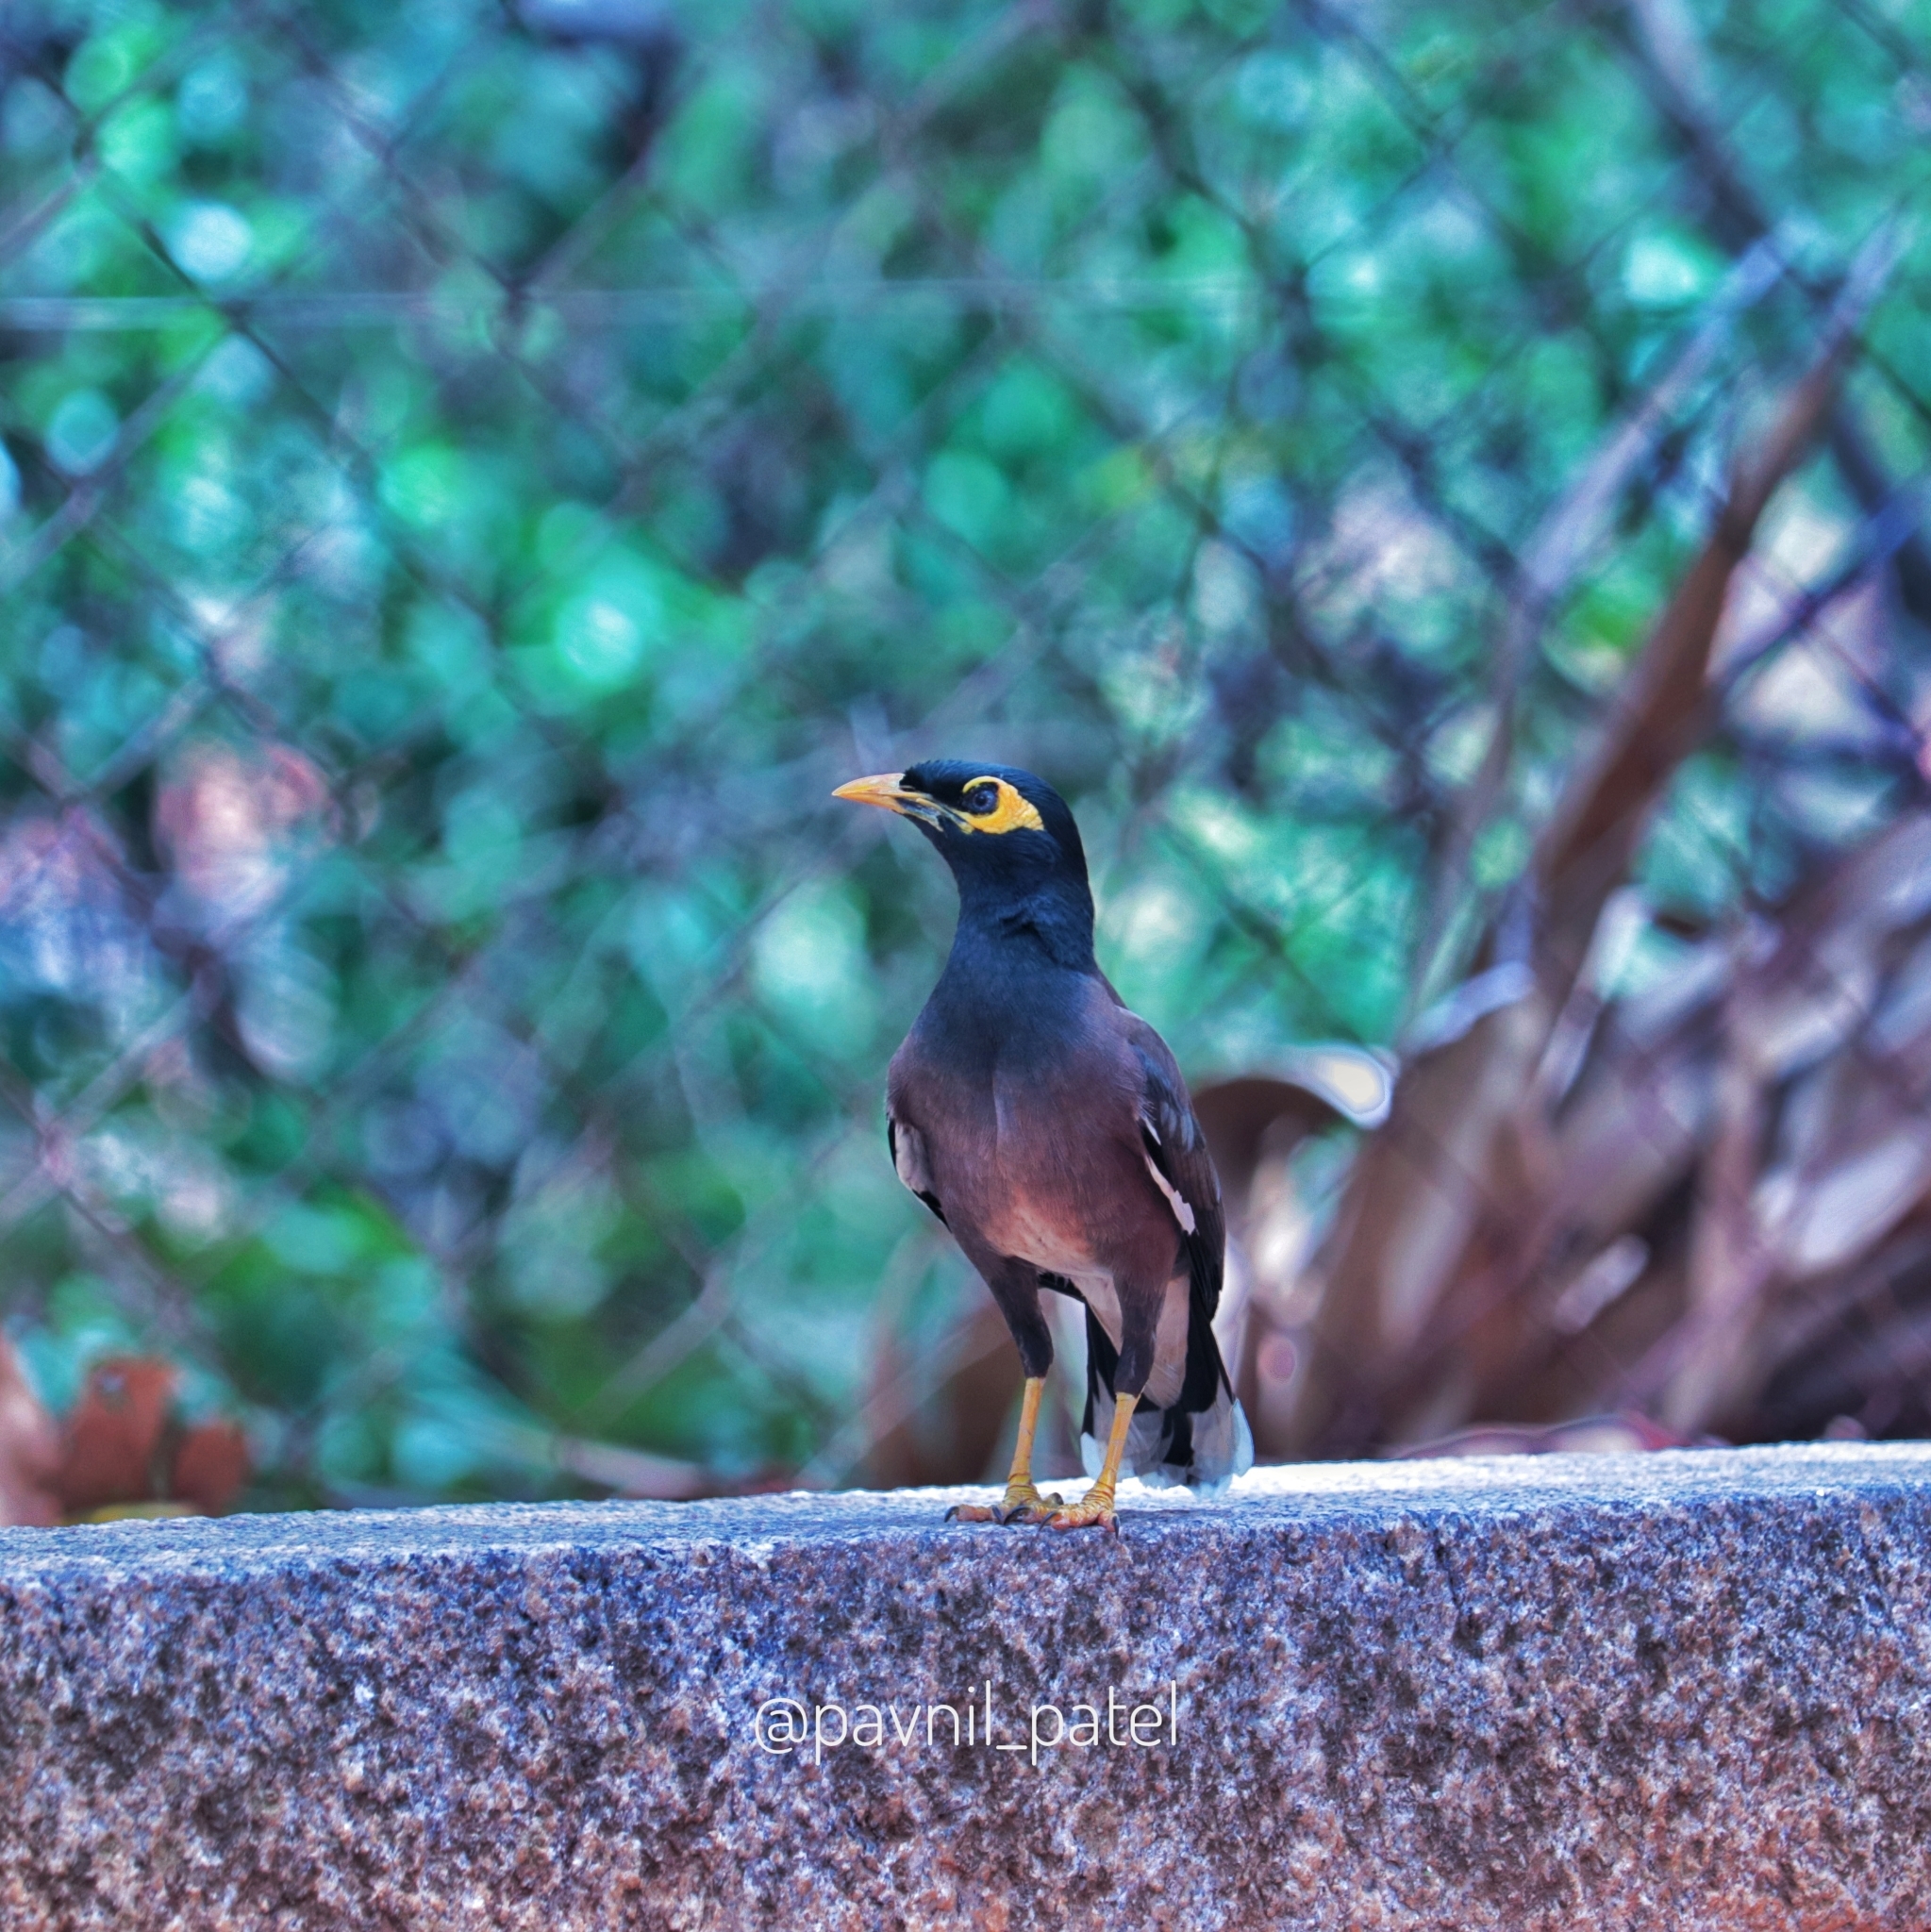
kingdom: Animalia
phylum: Chordata
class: Aves
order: Passeriformes
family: Sturnidae
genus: Acridotheres
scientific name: Acridotheres tristis
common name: Common myna
